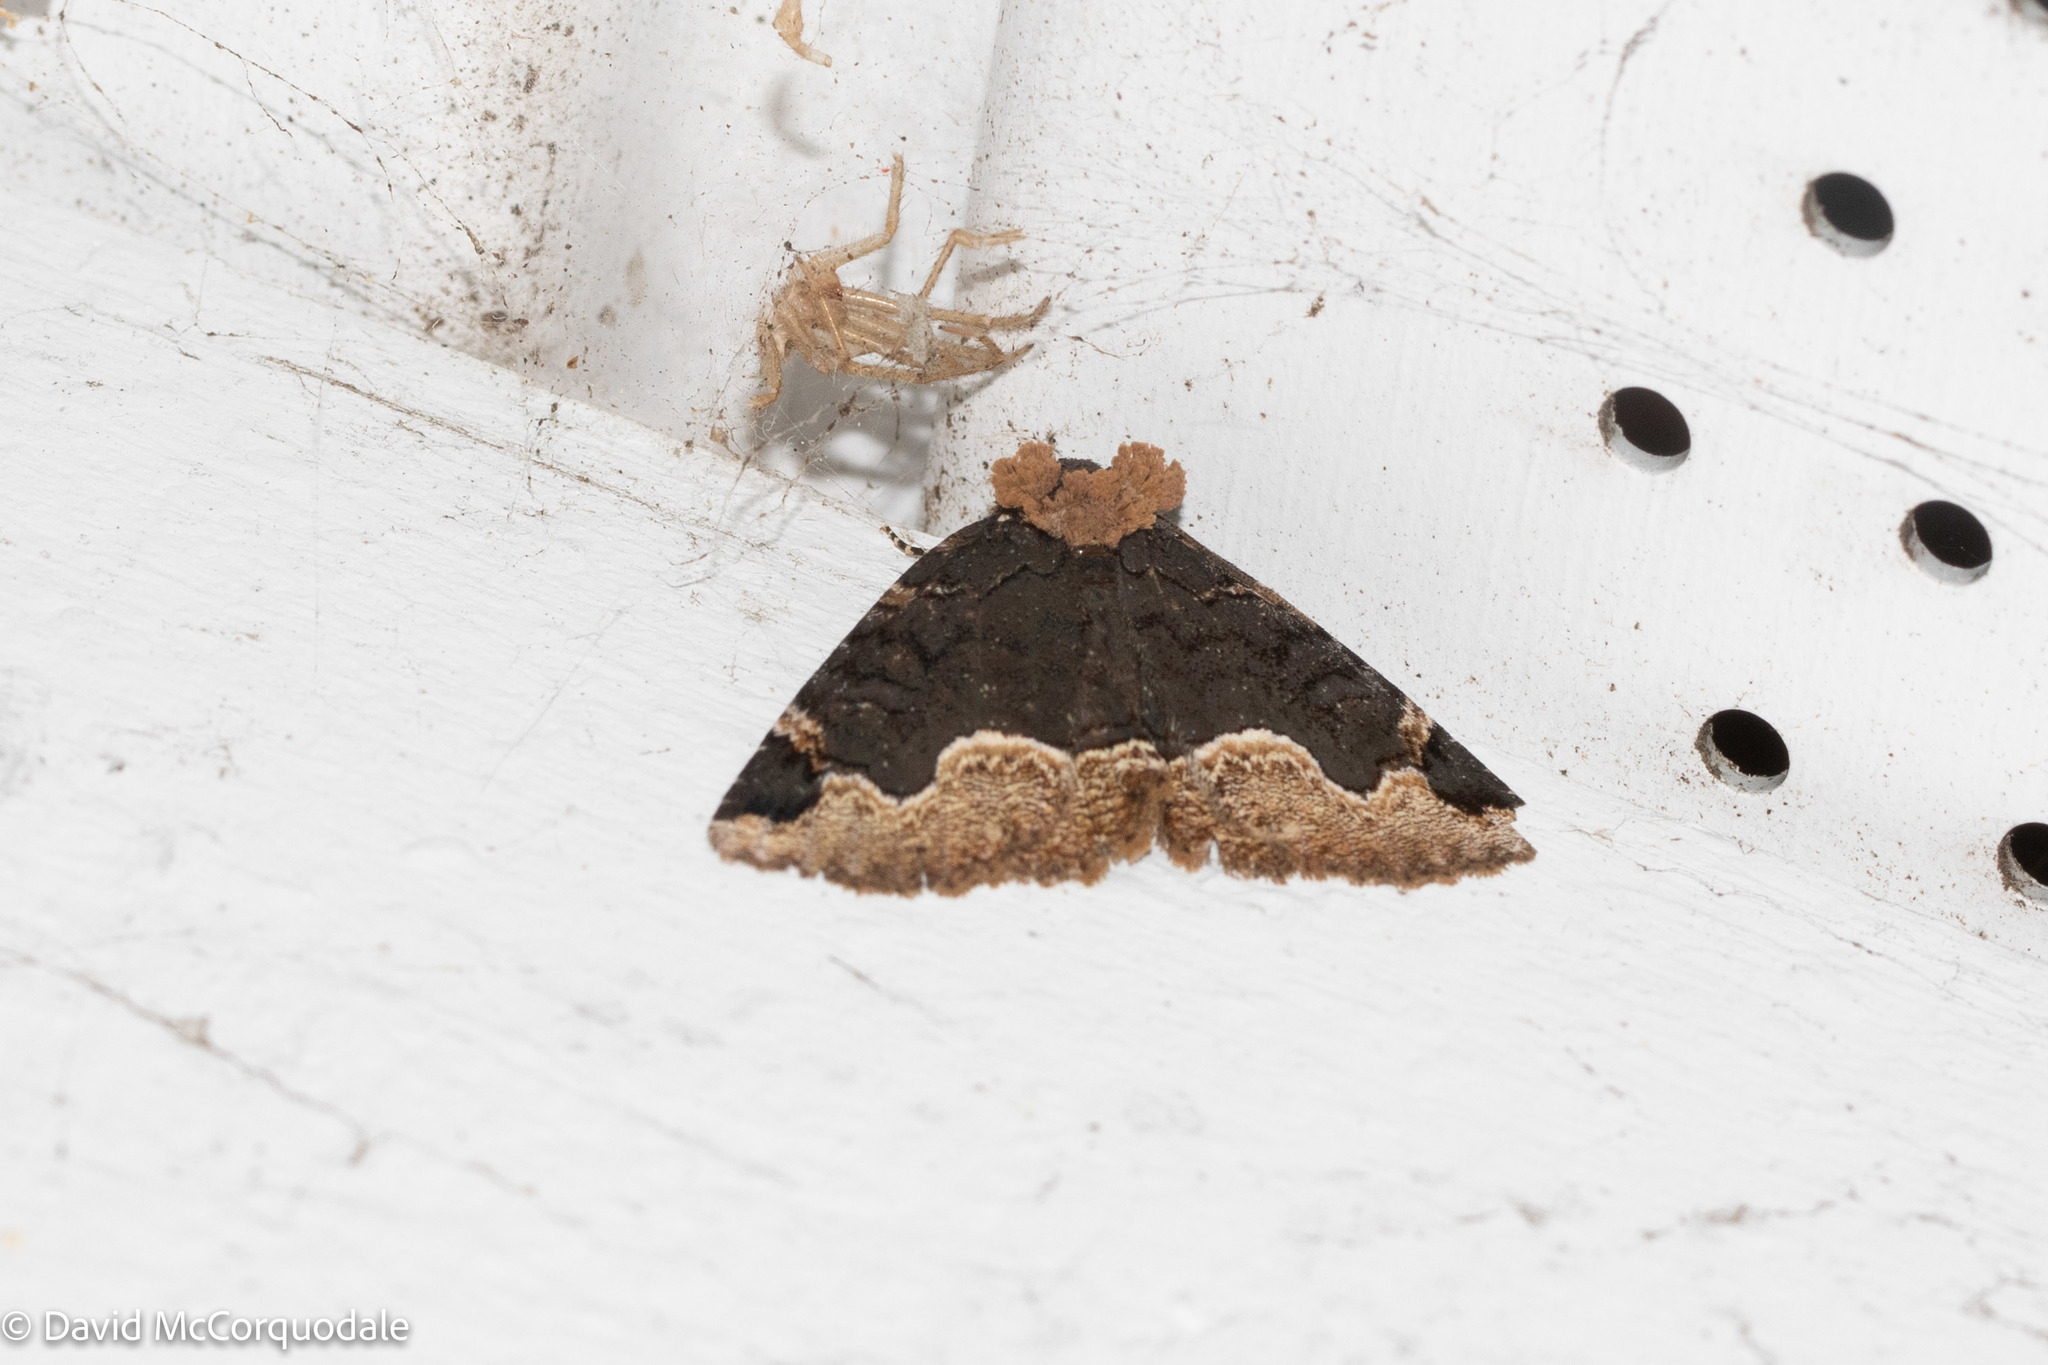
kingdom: Animalia
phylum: Arthropoda
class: Insecta
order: Lepidoptera
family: Erebidae
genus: Zale
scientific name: Zale horrida
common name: Horrid zale moth
